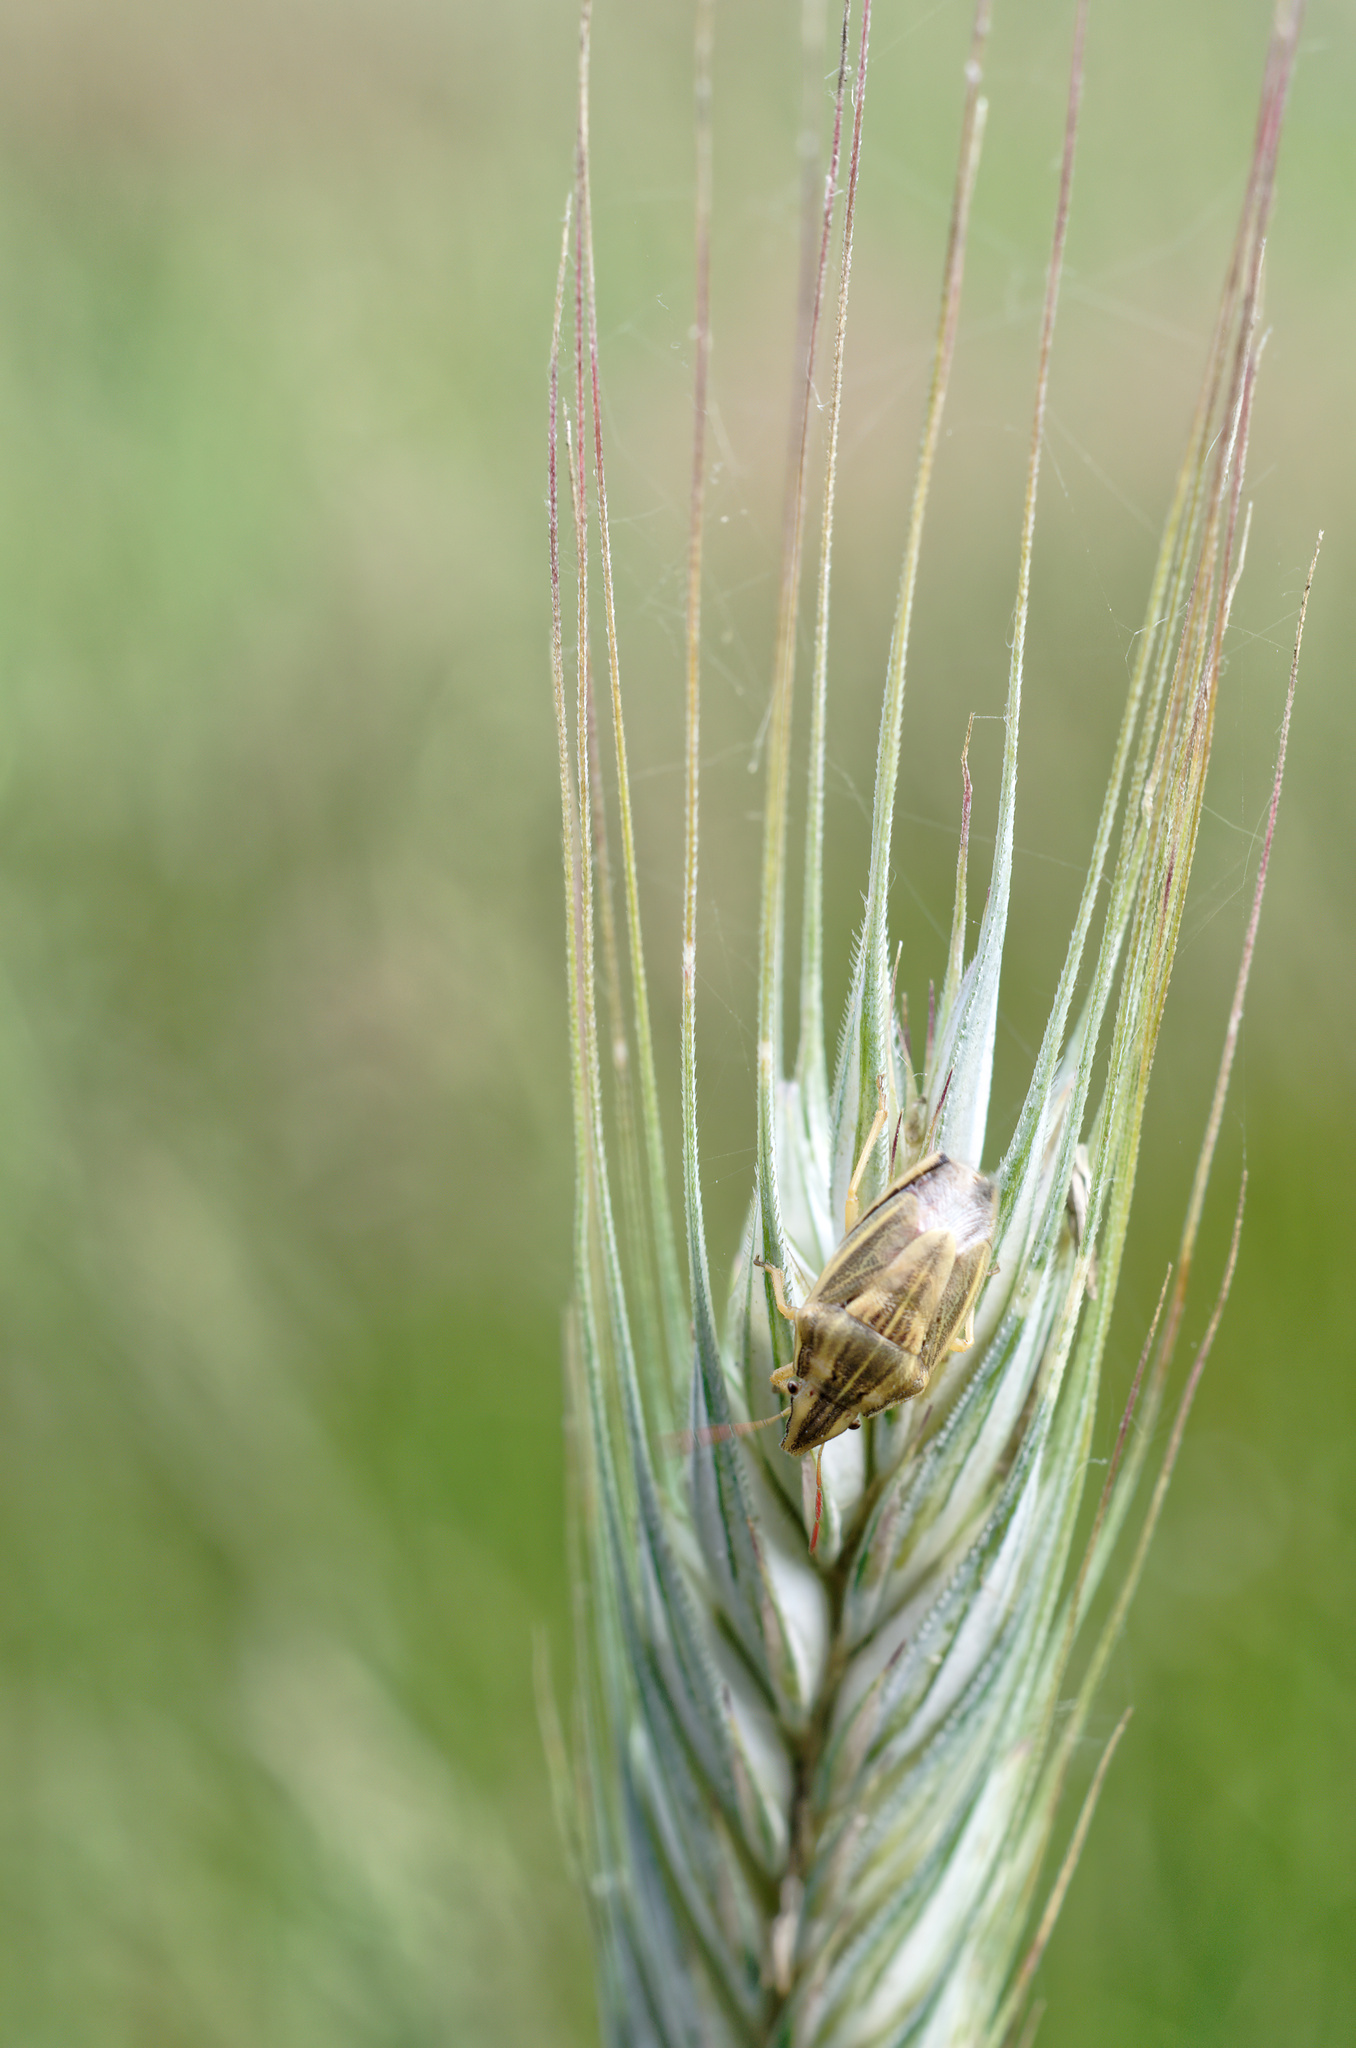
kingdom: Animalia
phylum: Arthropoda
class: Insecta
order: Hemiptera
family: Pentatomidae
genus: Aelia
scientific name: Aelia acuminata
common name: Bishop's mitre
